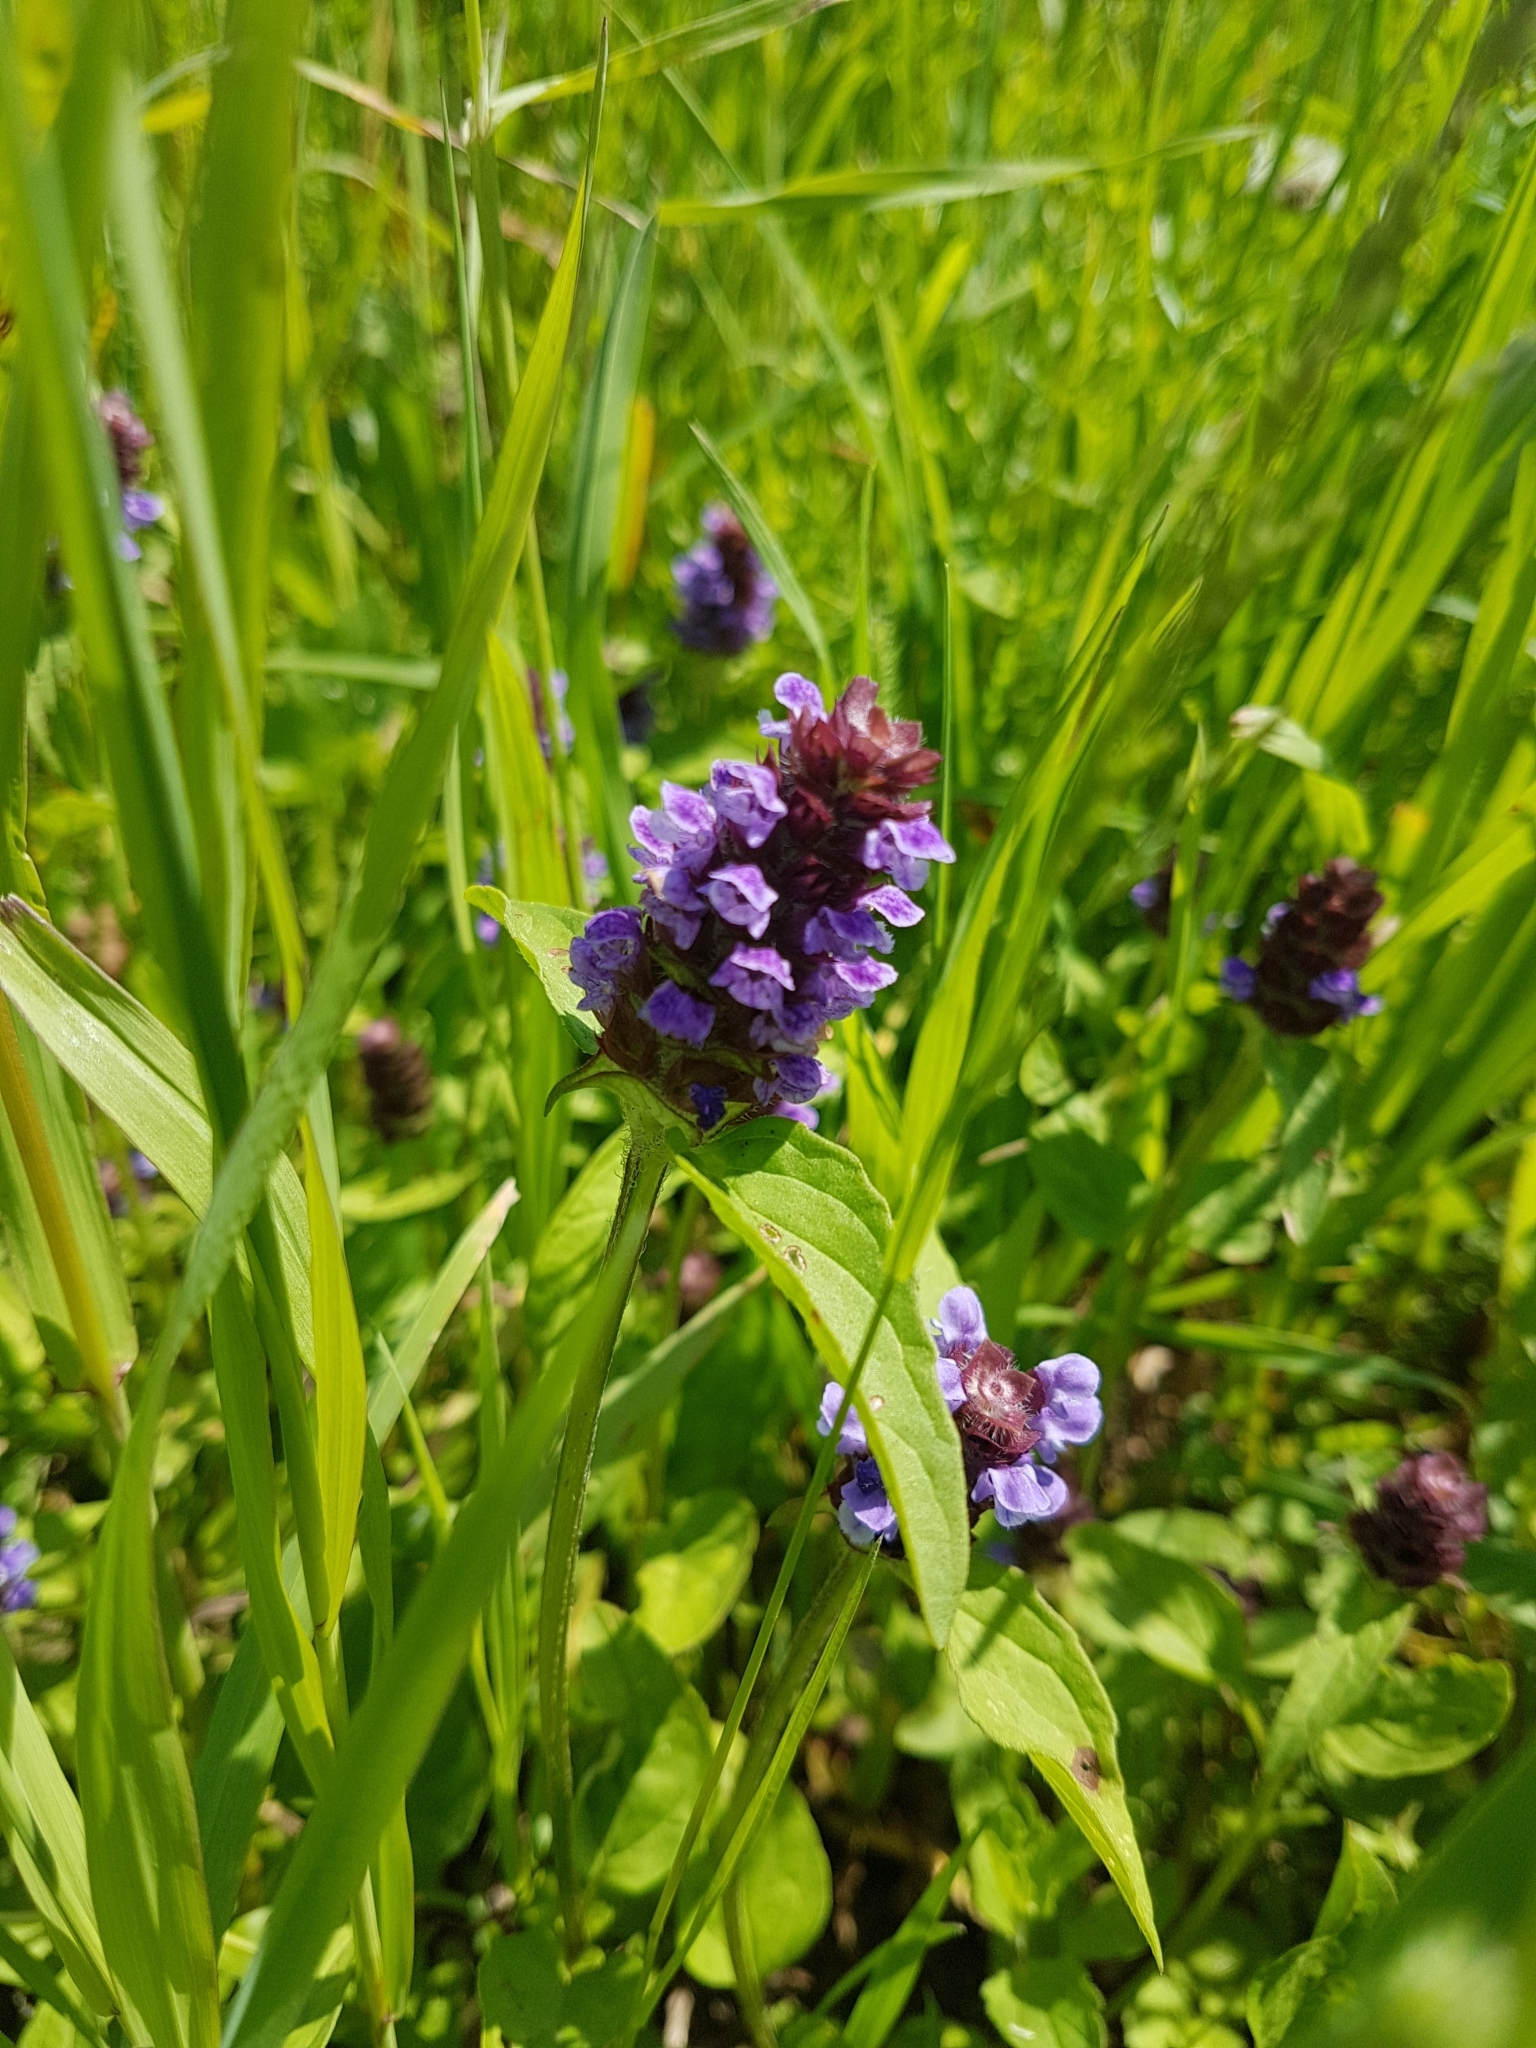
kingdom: Plantae
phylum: Tracheophyta
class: Magnoliopsida
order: Lamiales
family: Lamiaceae
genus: Prunella
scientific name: Prunella vulgaris
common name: Heal-all
